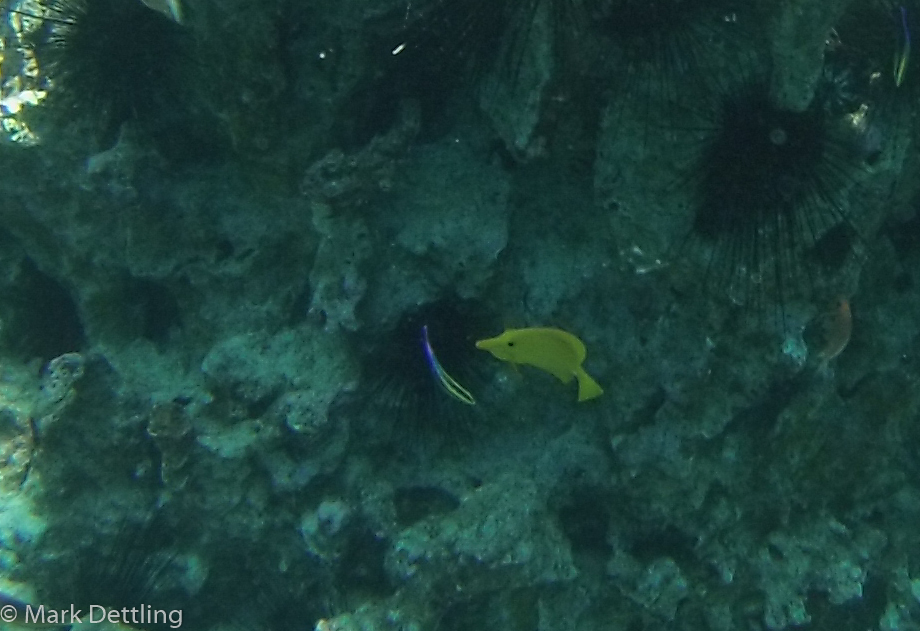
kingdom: Animalia
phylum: Chordata
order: Perciformes
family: Labridae
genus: Labroides
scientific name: Labroides phthirophagus
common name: Cleaner wrasse
